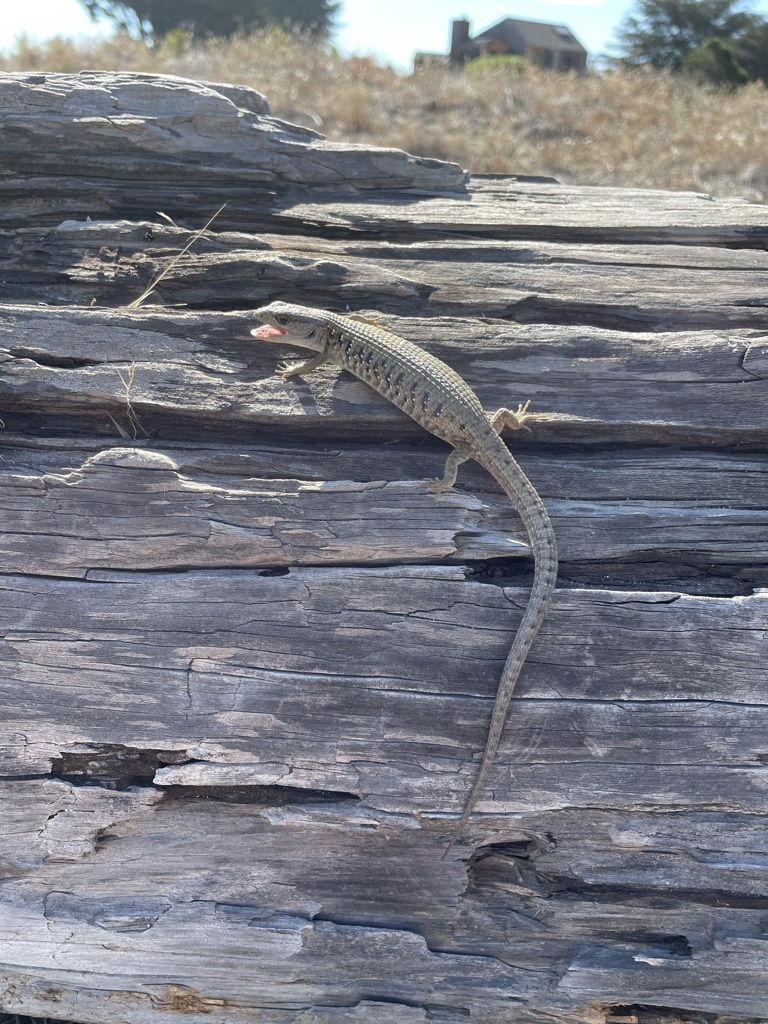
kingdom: Animalia
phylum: Chordata
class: Squamata
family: Anguidae
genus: Elgaria
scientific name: Elgaria coerulea
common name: Northern alligator lizard
